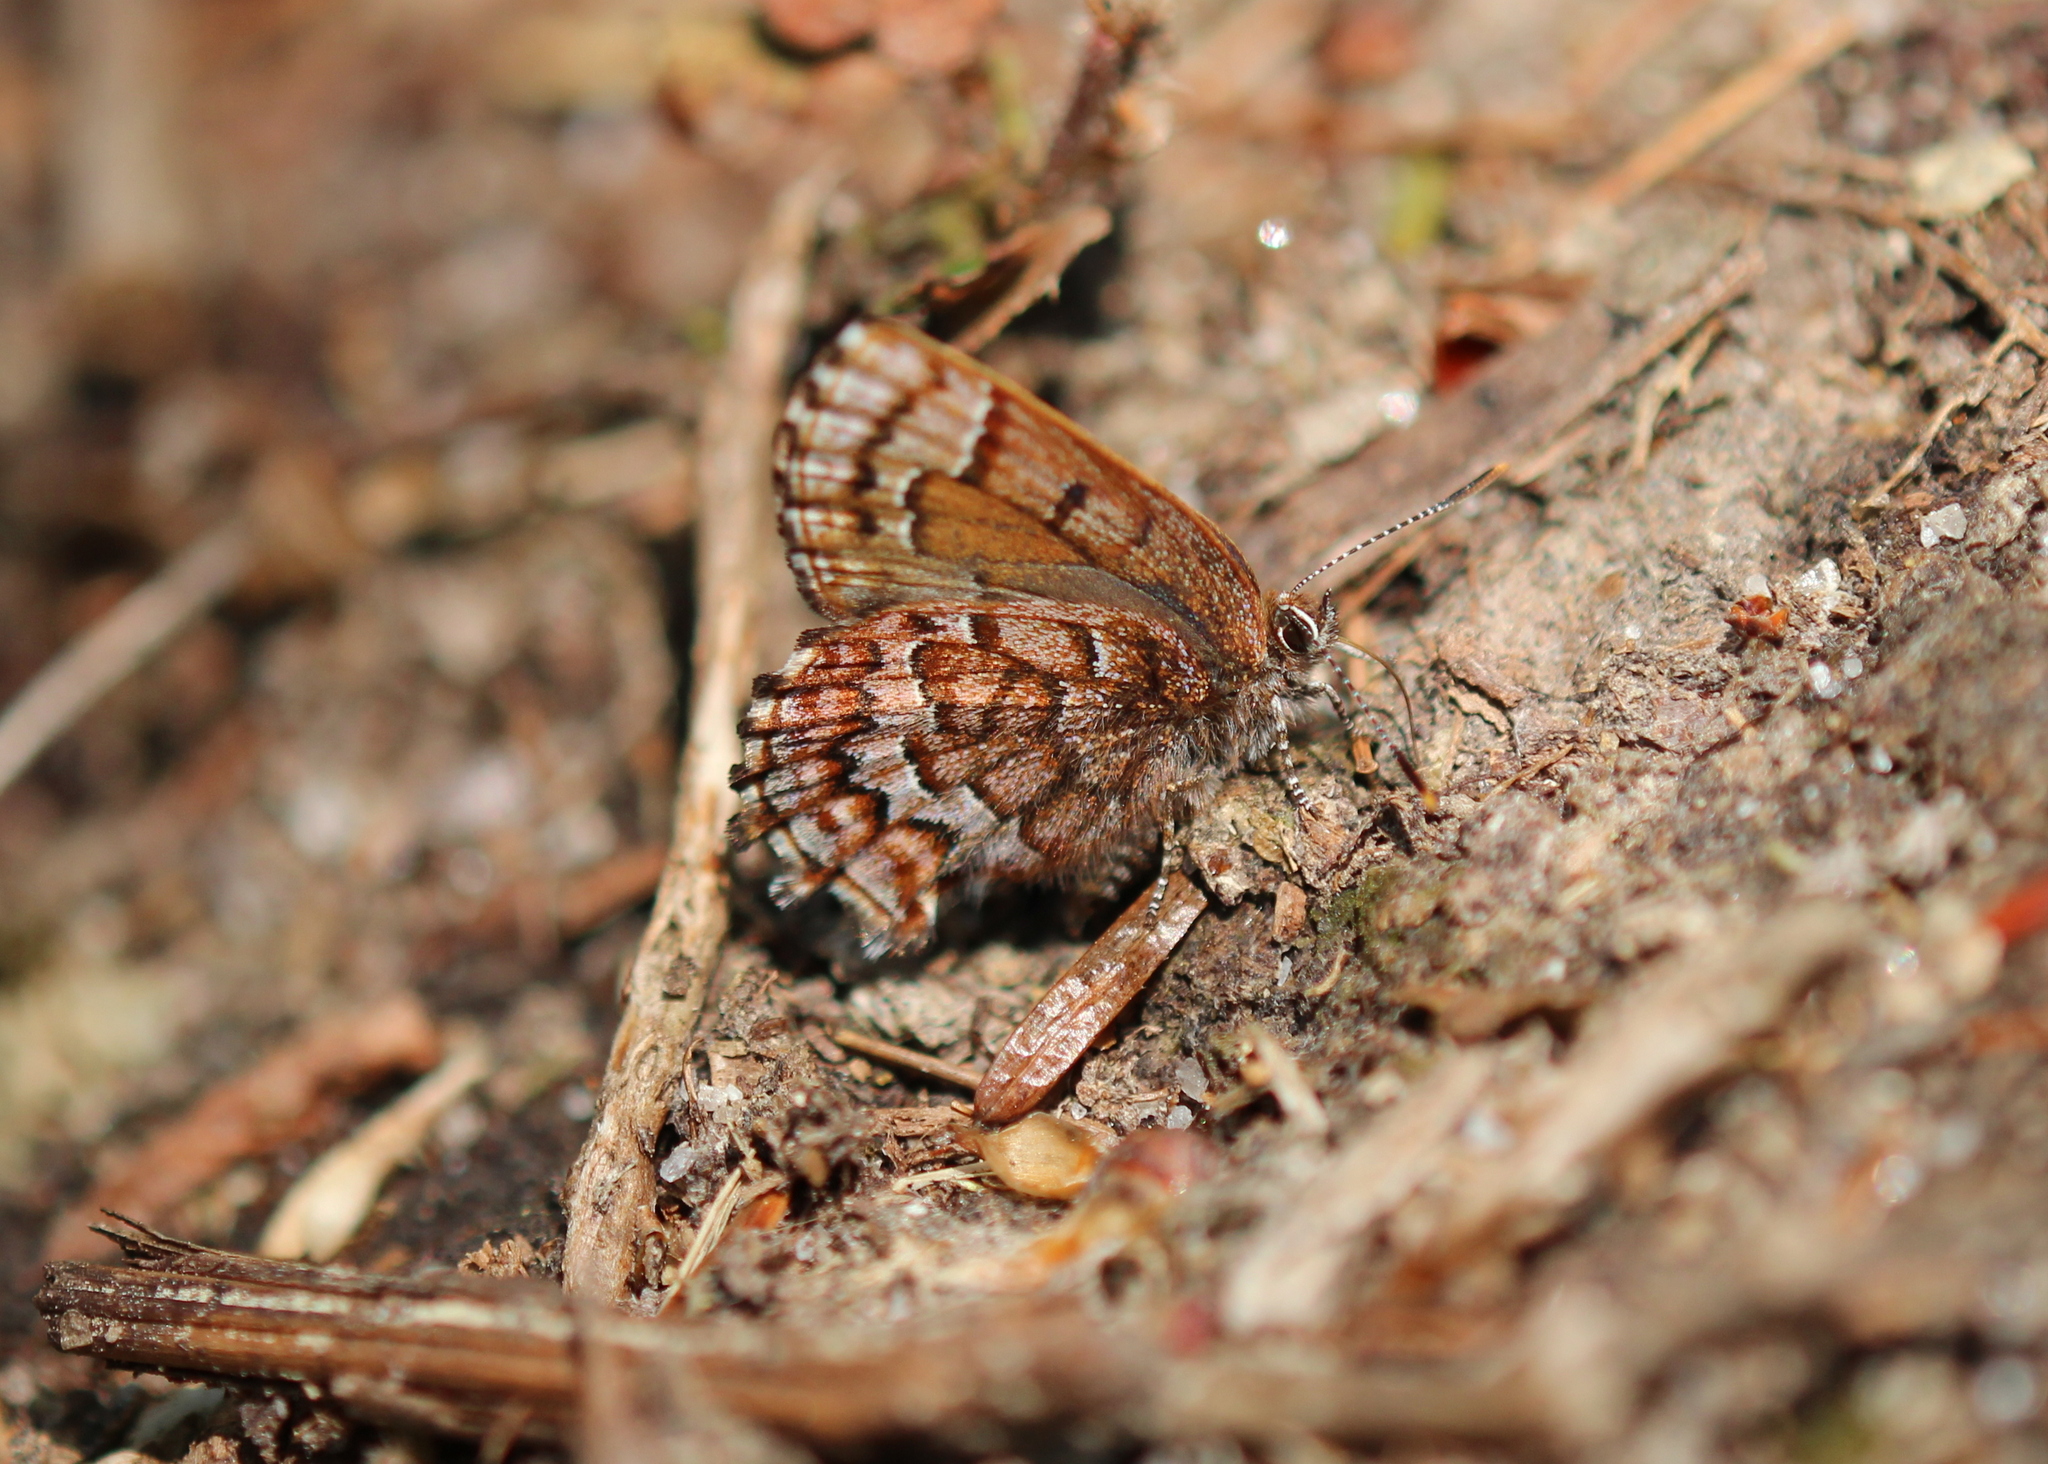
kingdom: Animalia
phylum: Arthropoda
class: Insecta
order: Lepidoptera
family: Lycaenidae
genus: Incisalia
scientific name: Incisalia niphon
